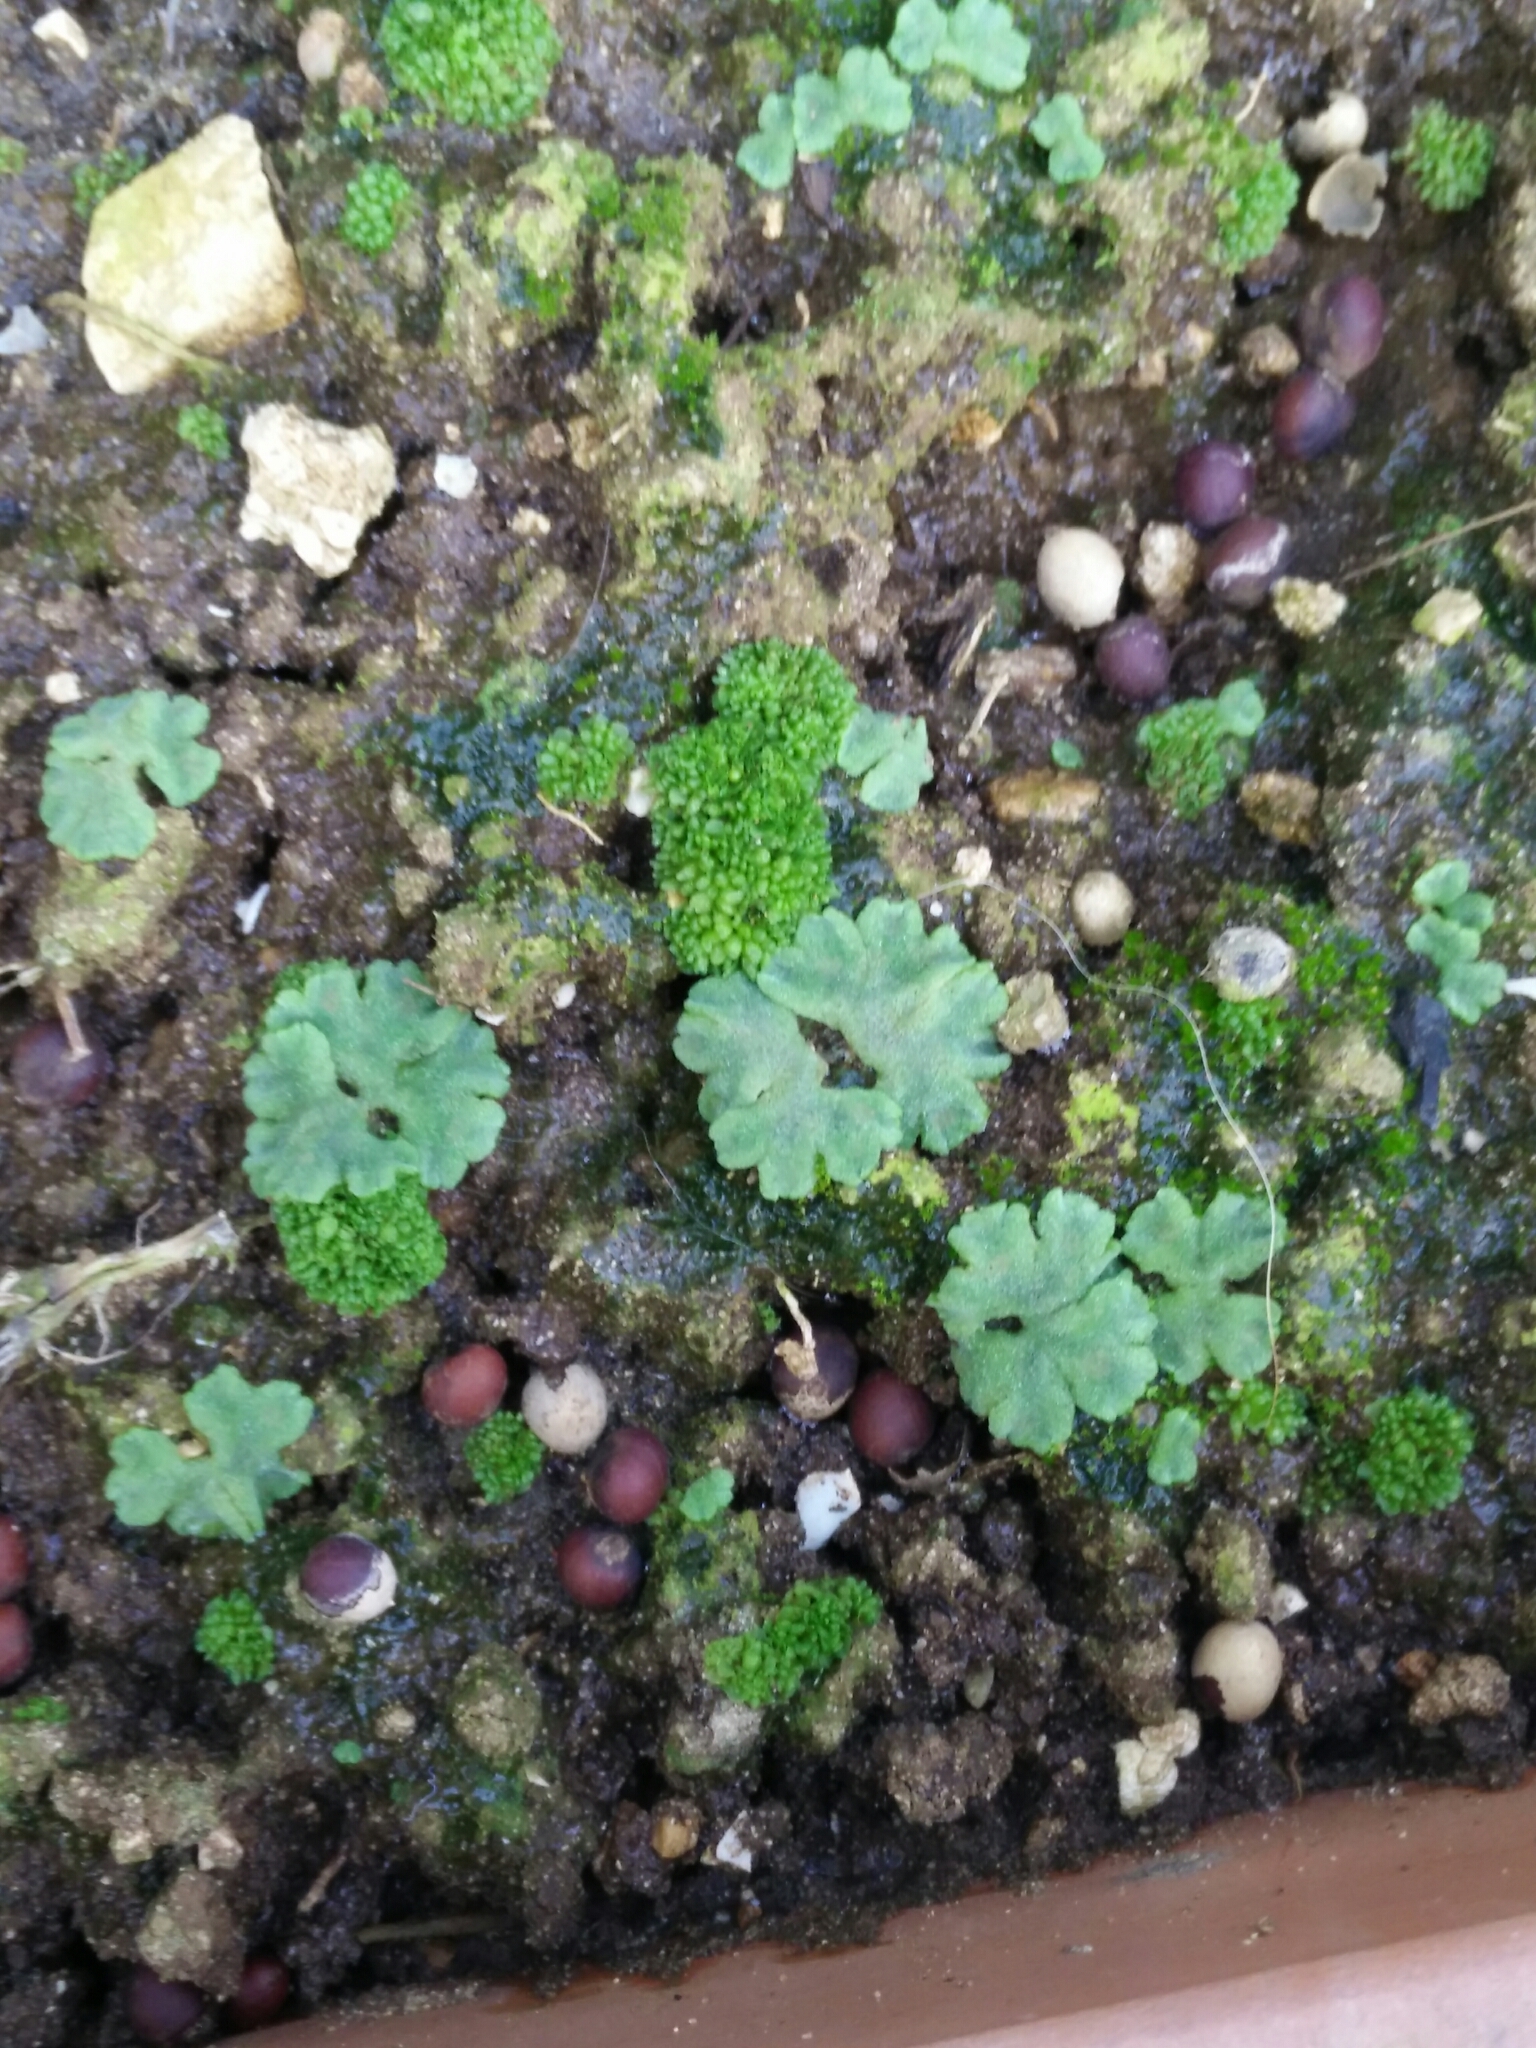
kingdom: Plantae
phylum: Marchantiophyta
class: Marchantiopsida
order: Marchantiales
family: Ricciaceae
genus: Riccia
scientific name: Riccia glauca
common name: Glaucous crystalwort
